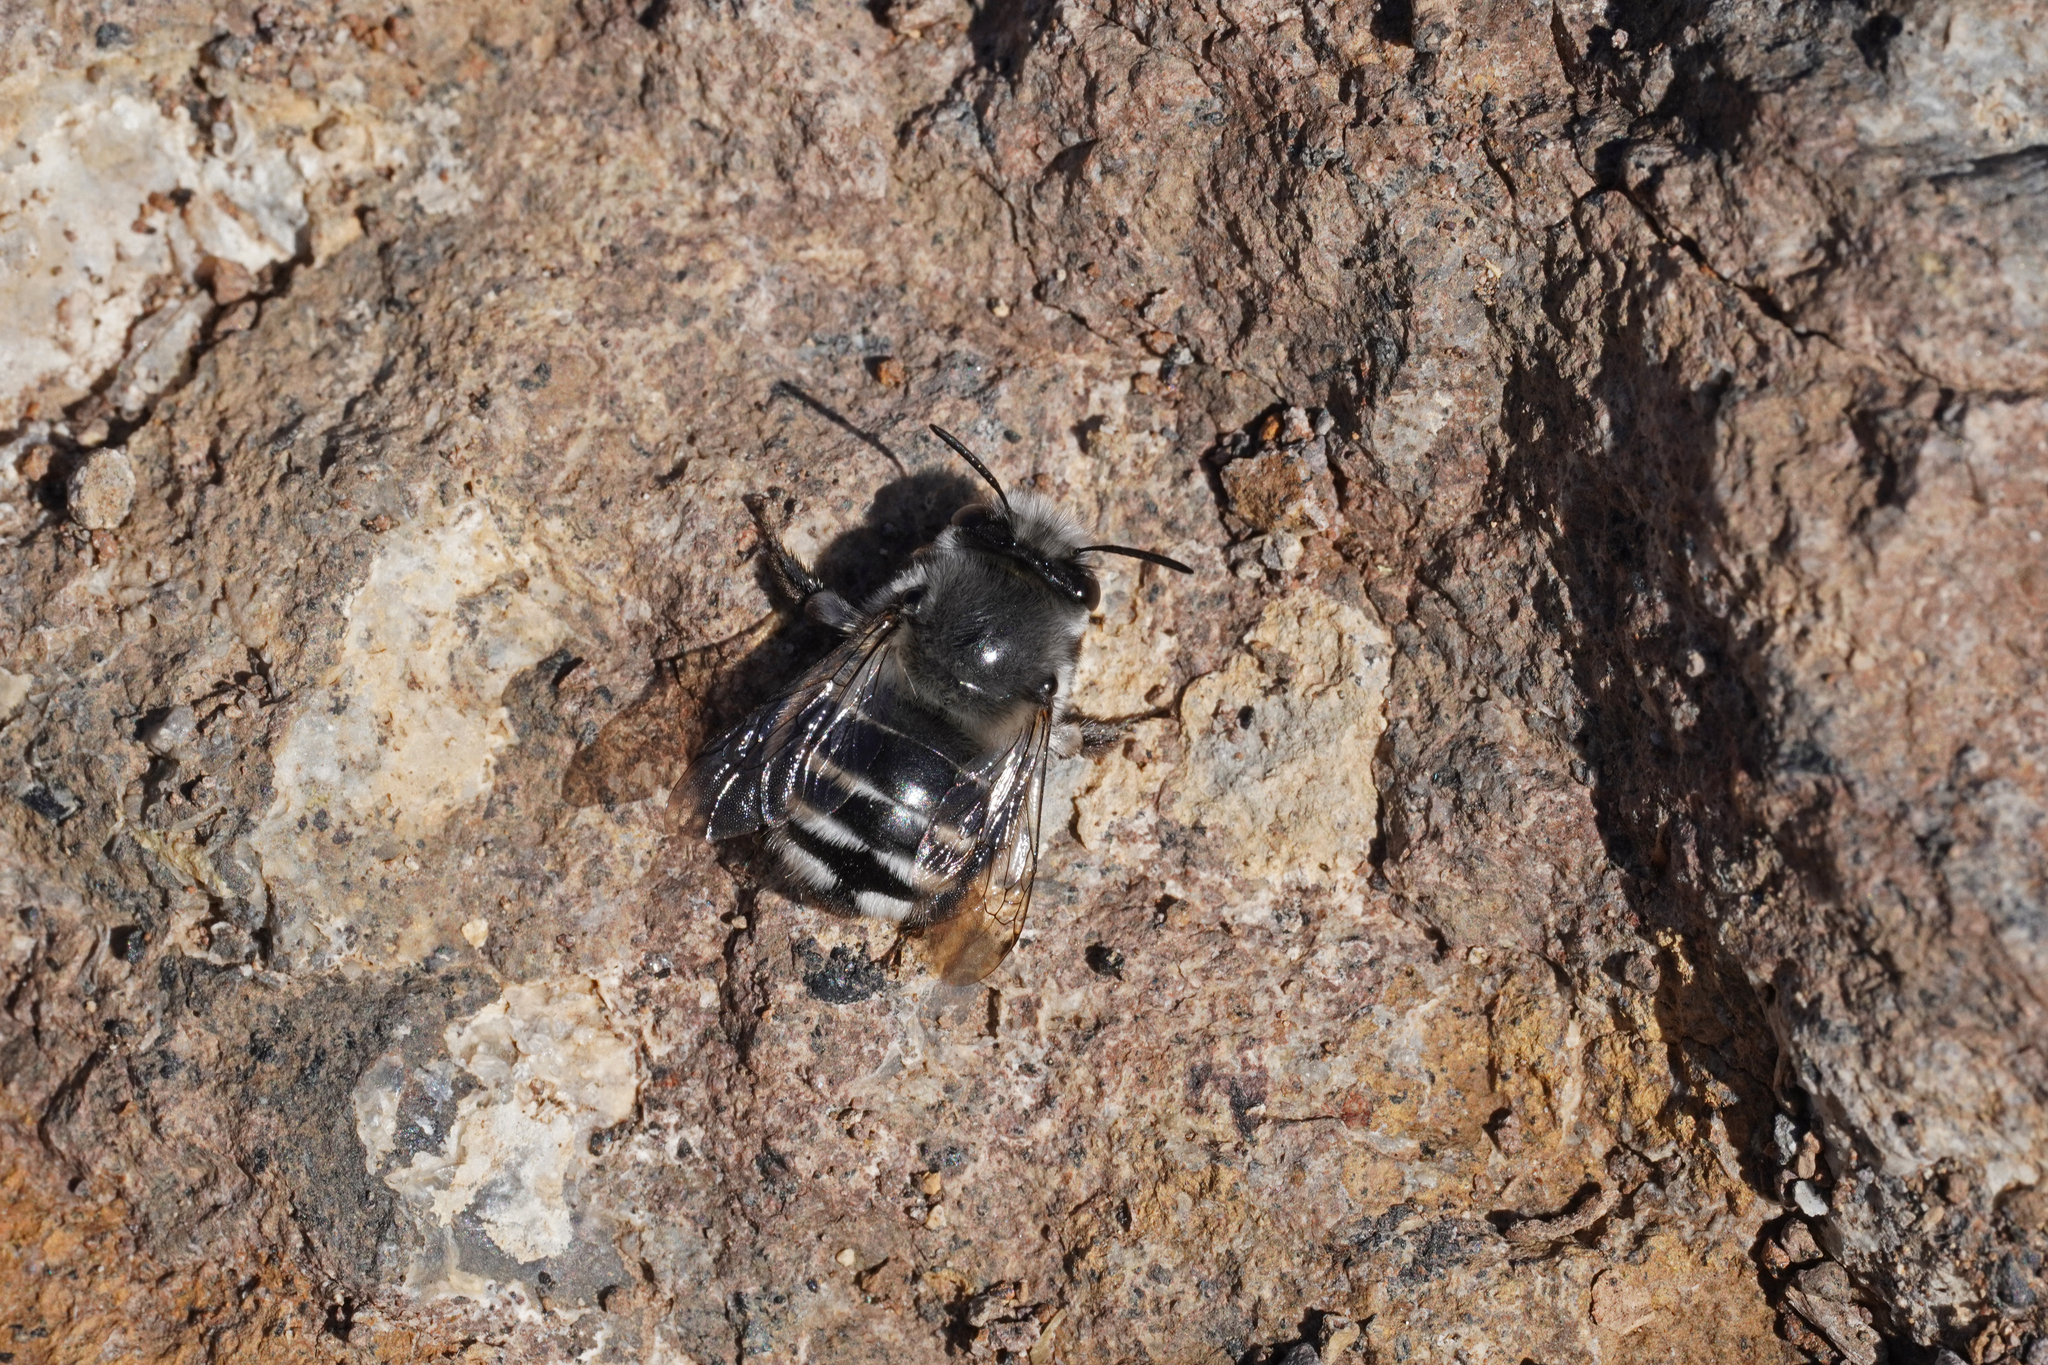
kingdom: Animalia
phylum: Arthropoda
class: Insecta
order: Hymenoptera
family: Apidae
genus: Anthophora
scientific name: Anthophora alluaudi
